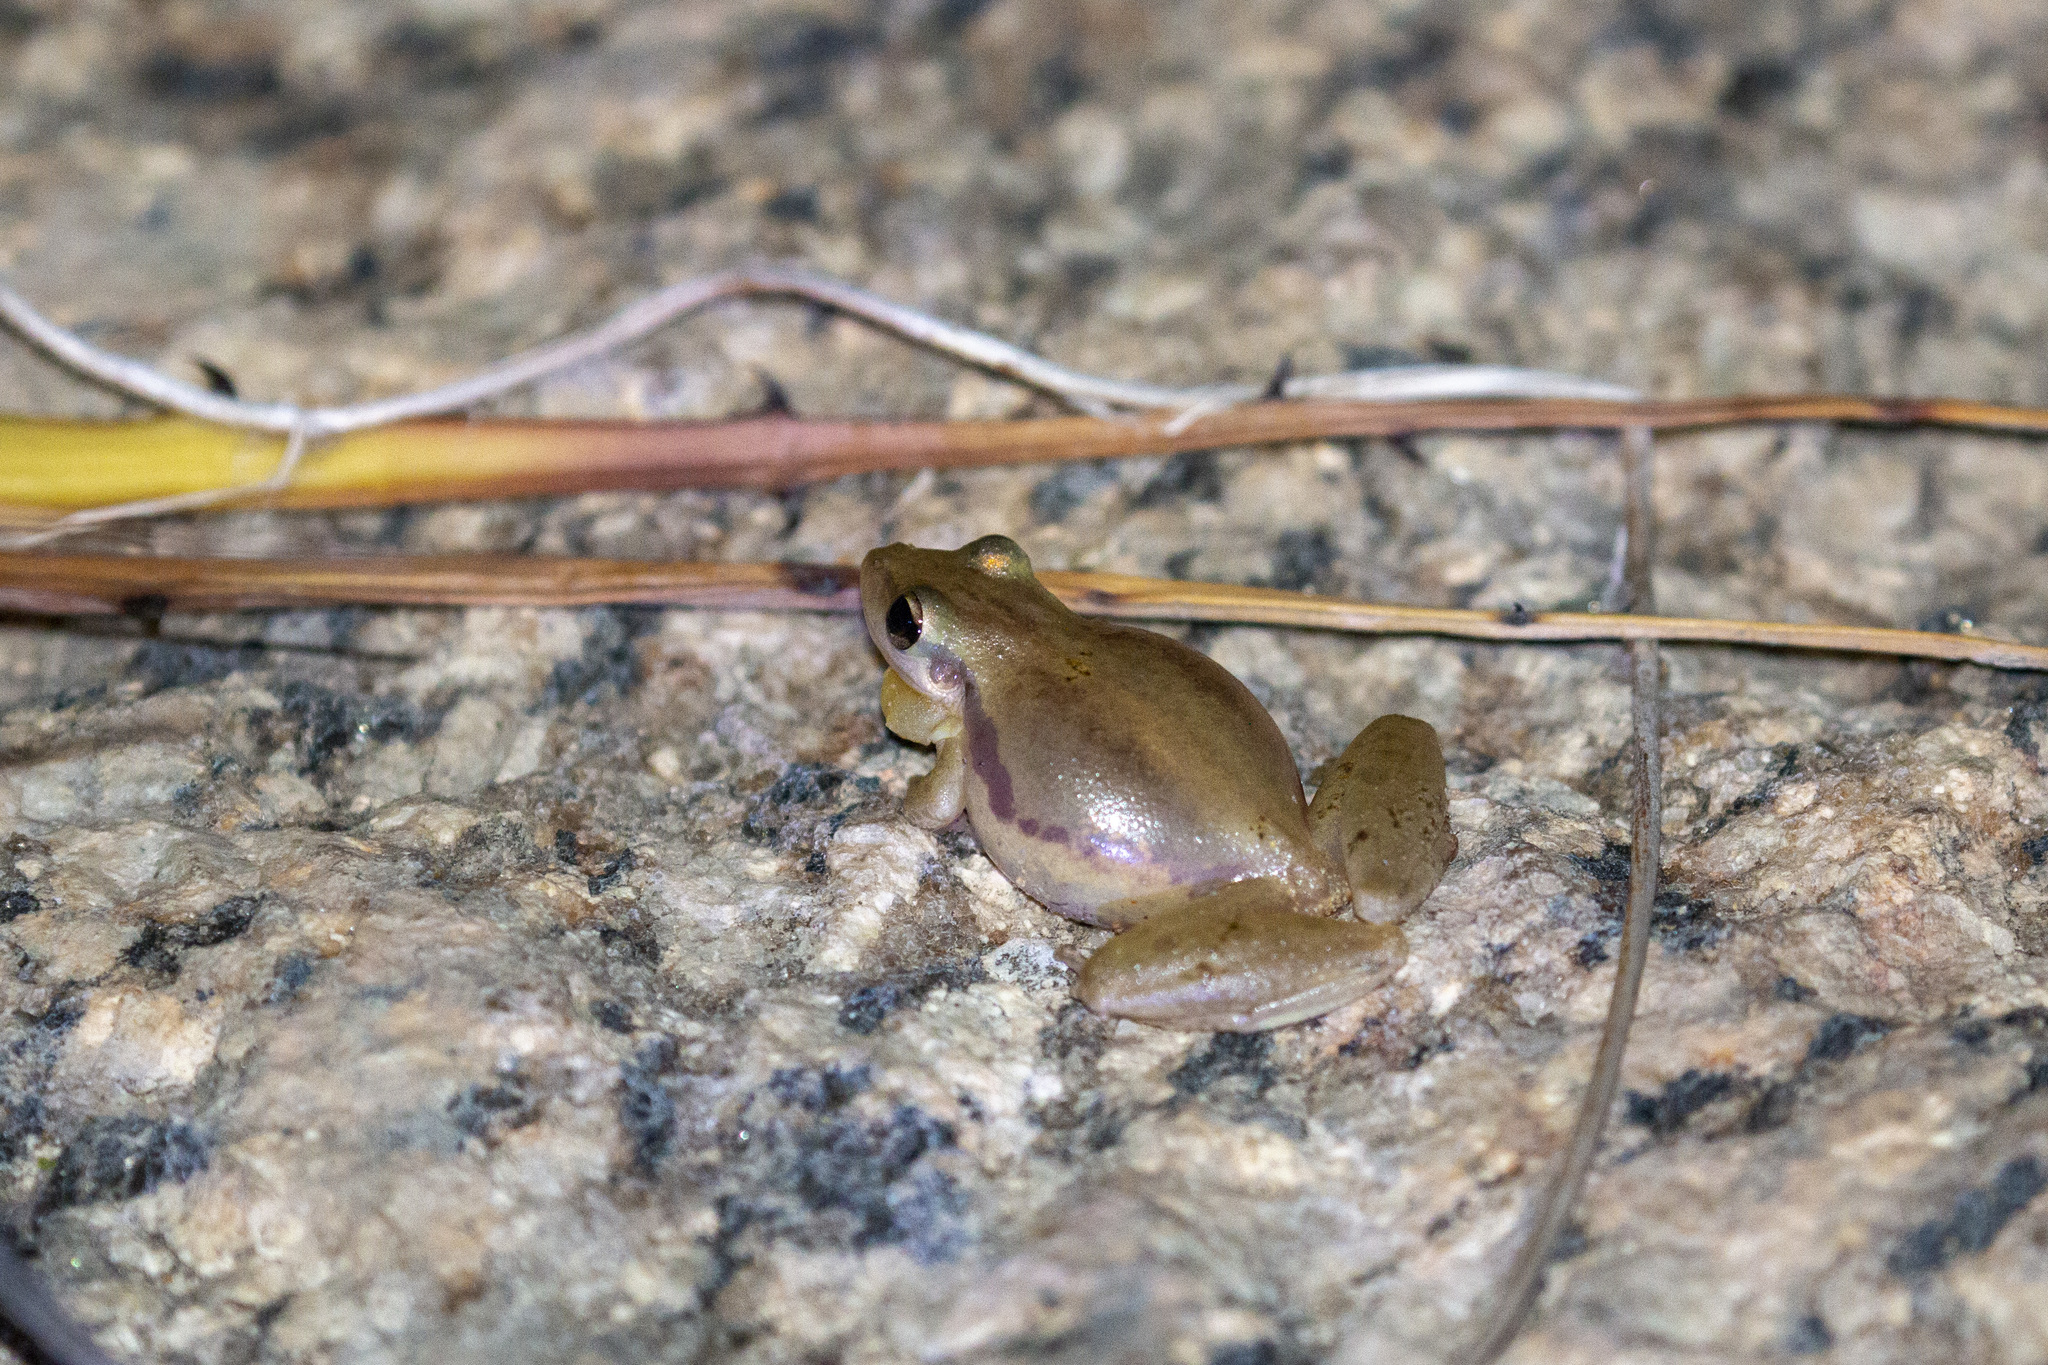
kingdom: Animalia
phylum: Chordata
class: Amphibia
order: Anura
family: Hylidae
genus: Scinax
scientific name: Scinax pachycrus
